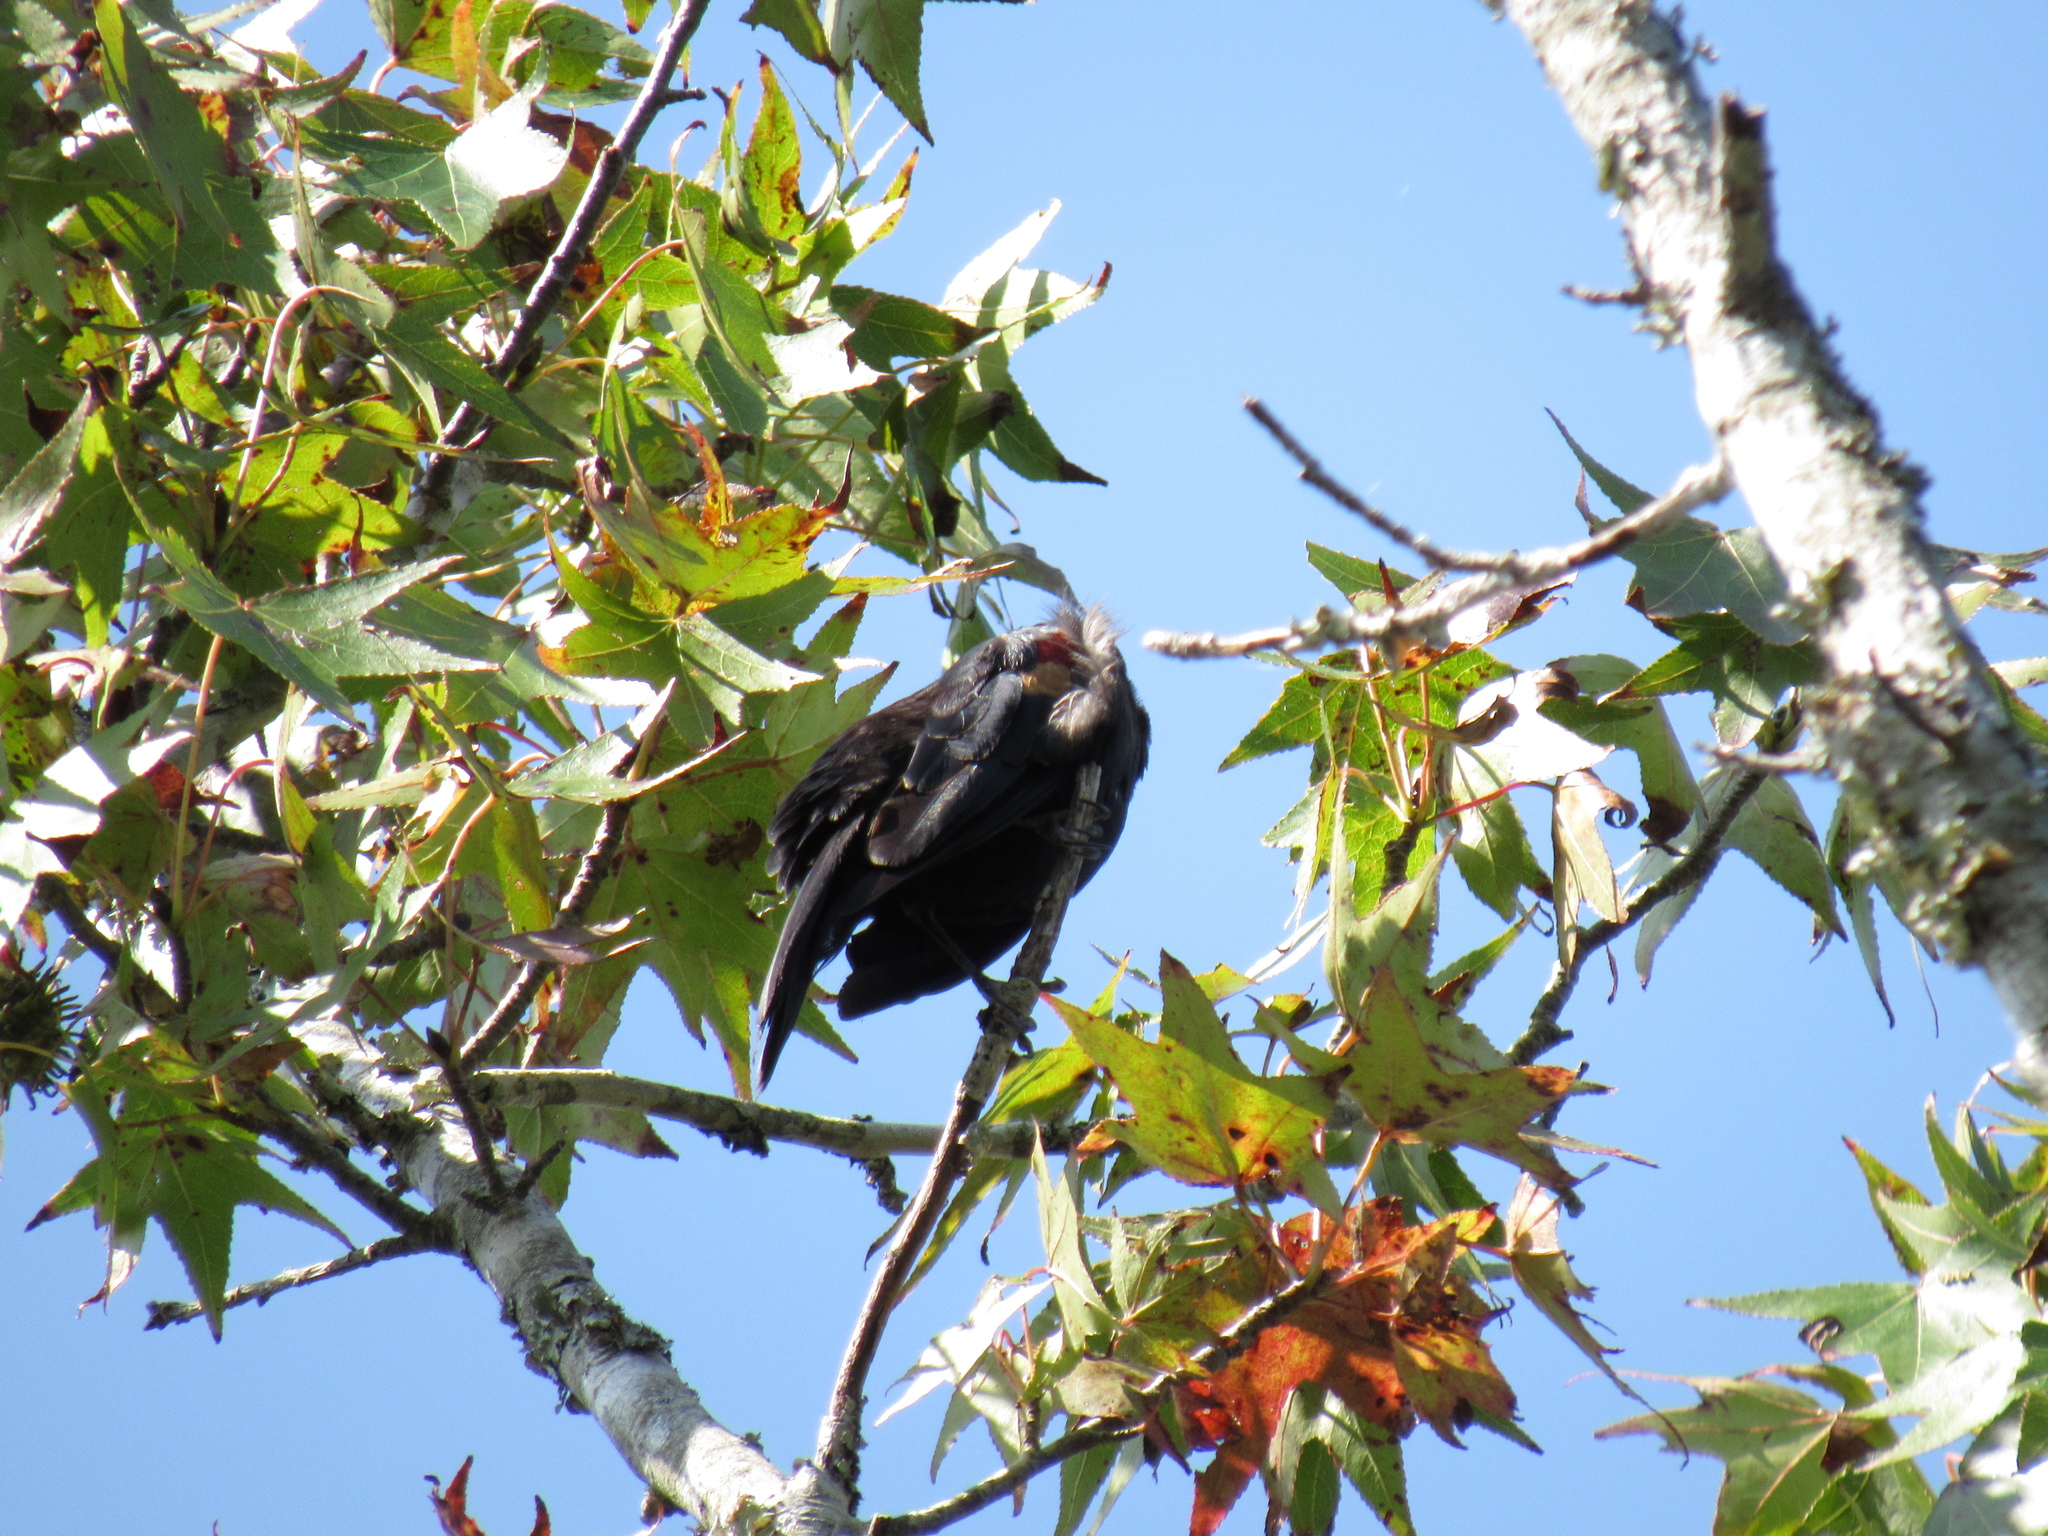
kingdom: Animalia
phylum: Chordata
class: Aves
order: Passeriformes
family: Icteridae
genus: Agelaius
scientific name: Agelaius phoeniceus
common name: Red-winged blackbird
